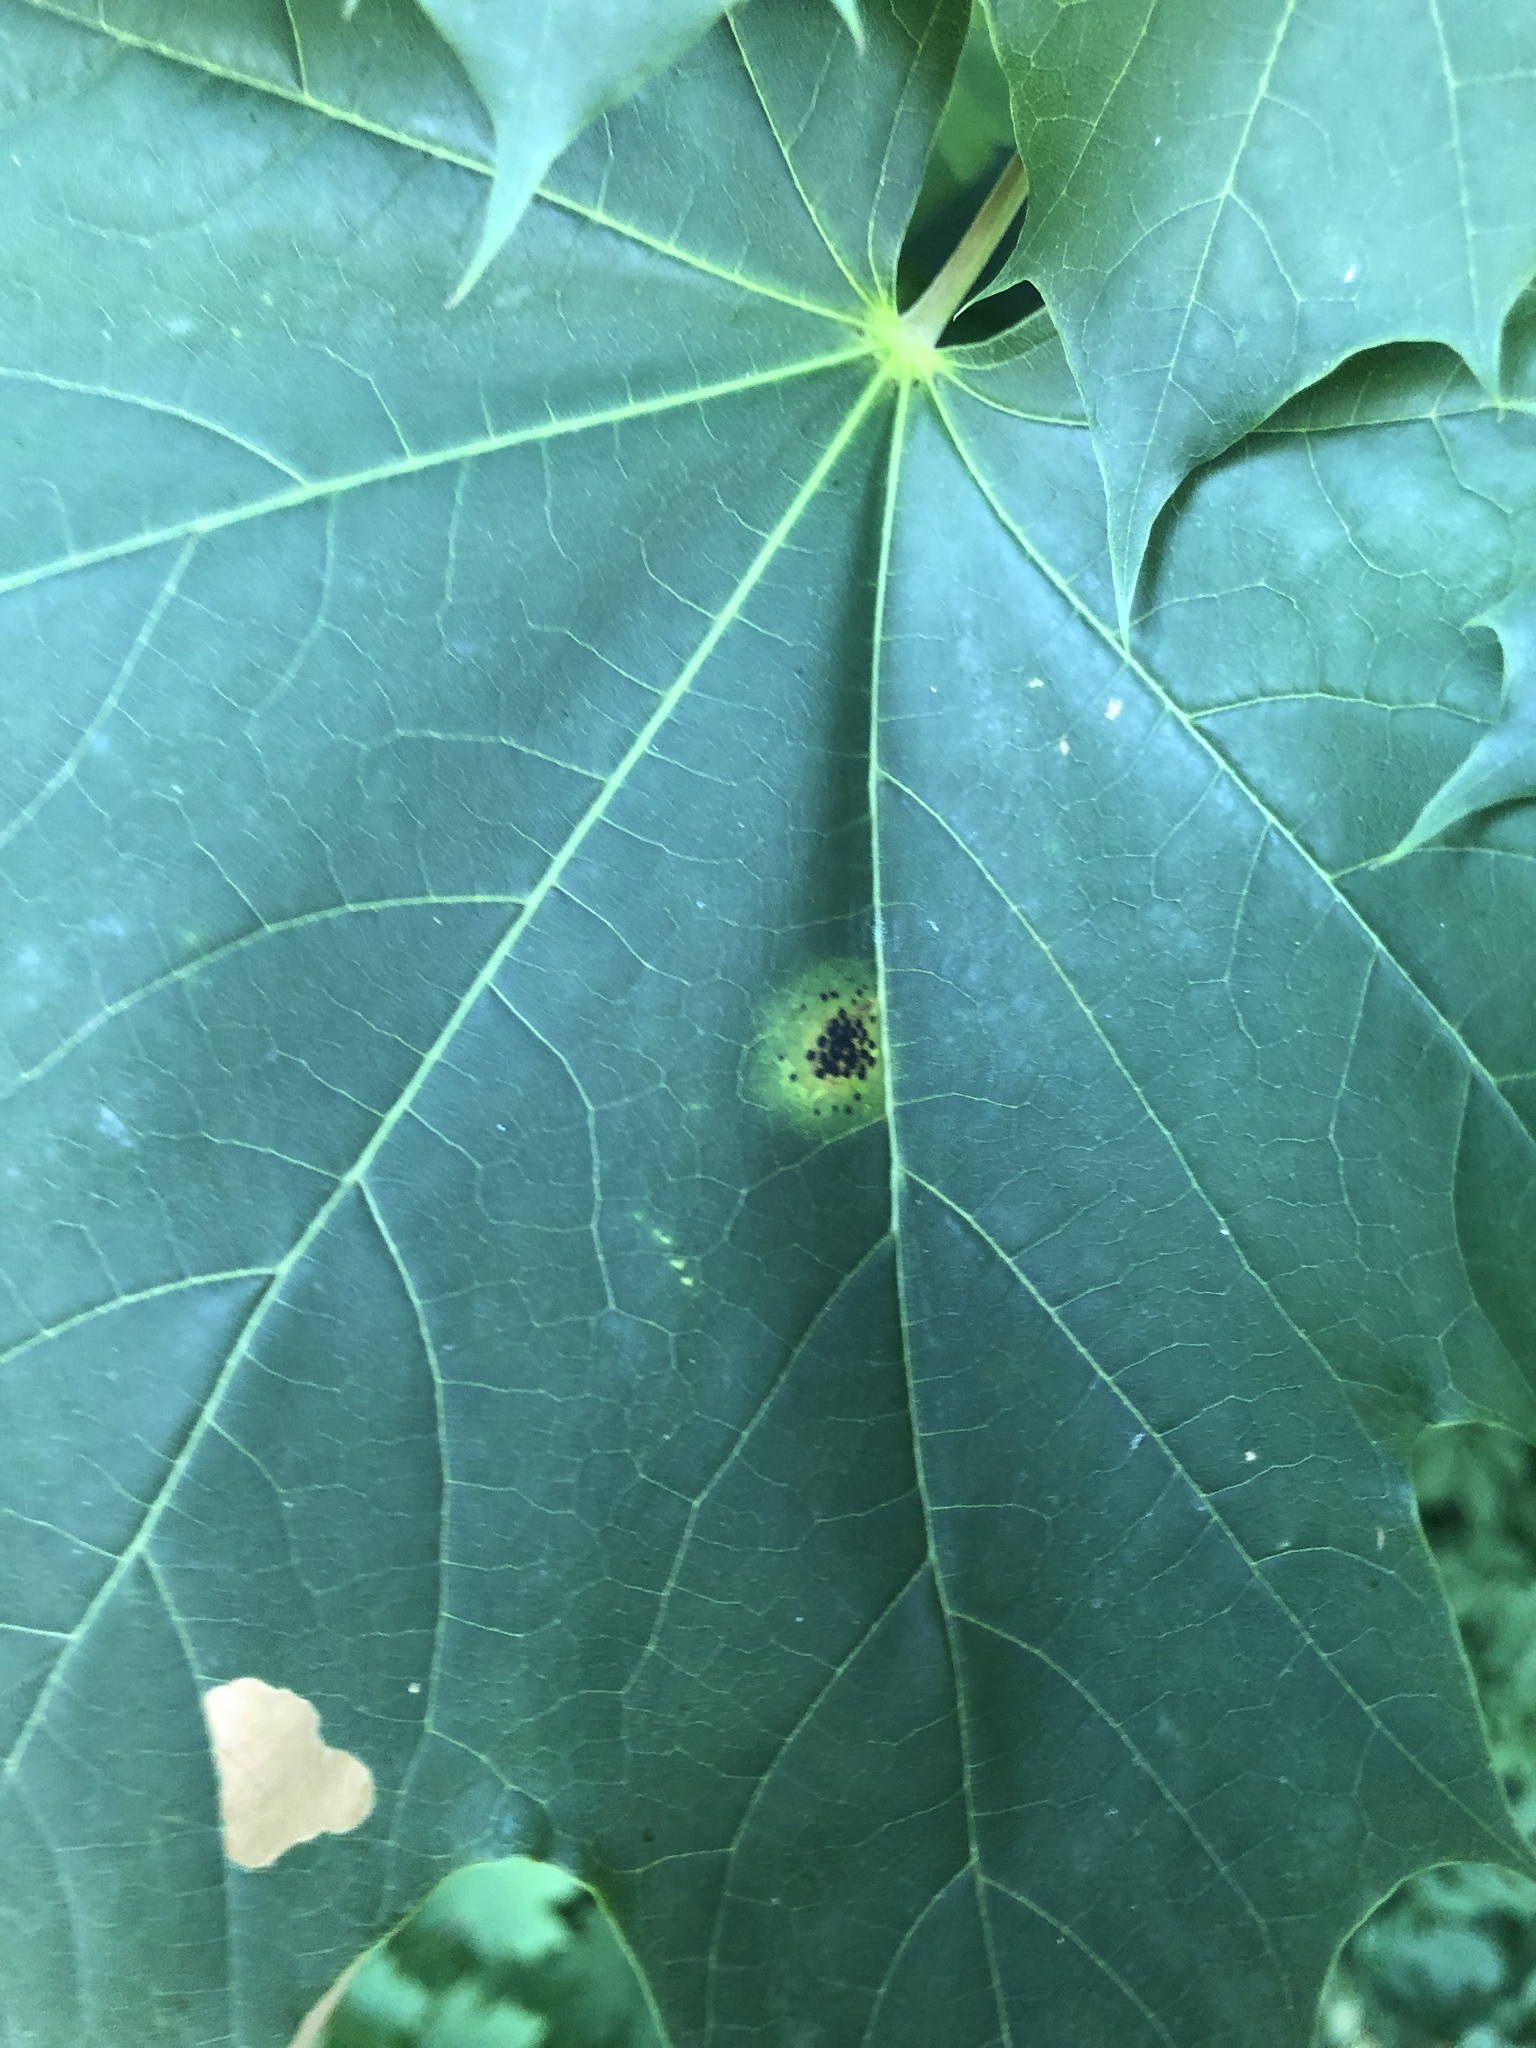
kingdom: Fungi
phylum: Ascomycota
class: Leotiomycetes
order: Rhytismatales
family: Rhytismataceae
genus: Rhytisma
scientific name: Rhytisma acerinum
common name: European tar spot
